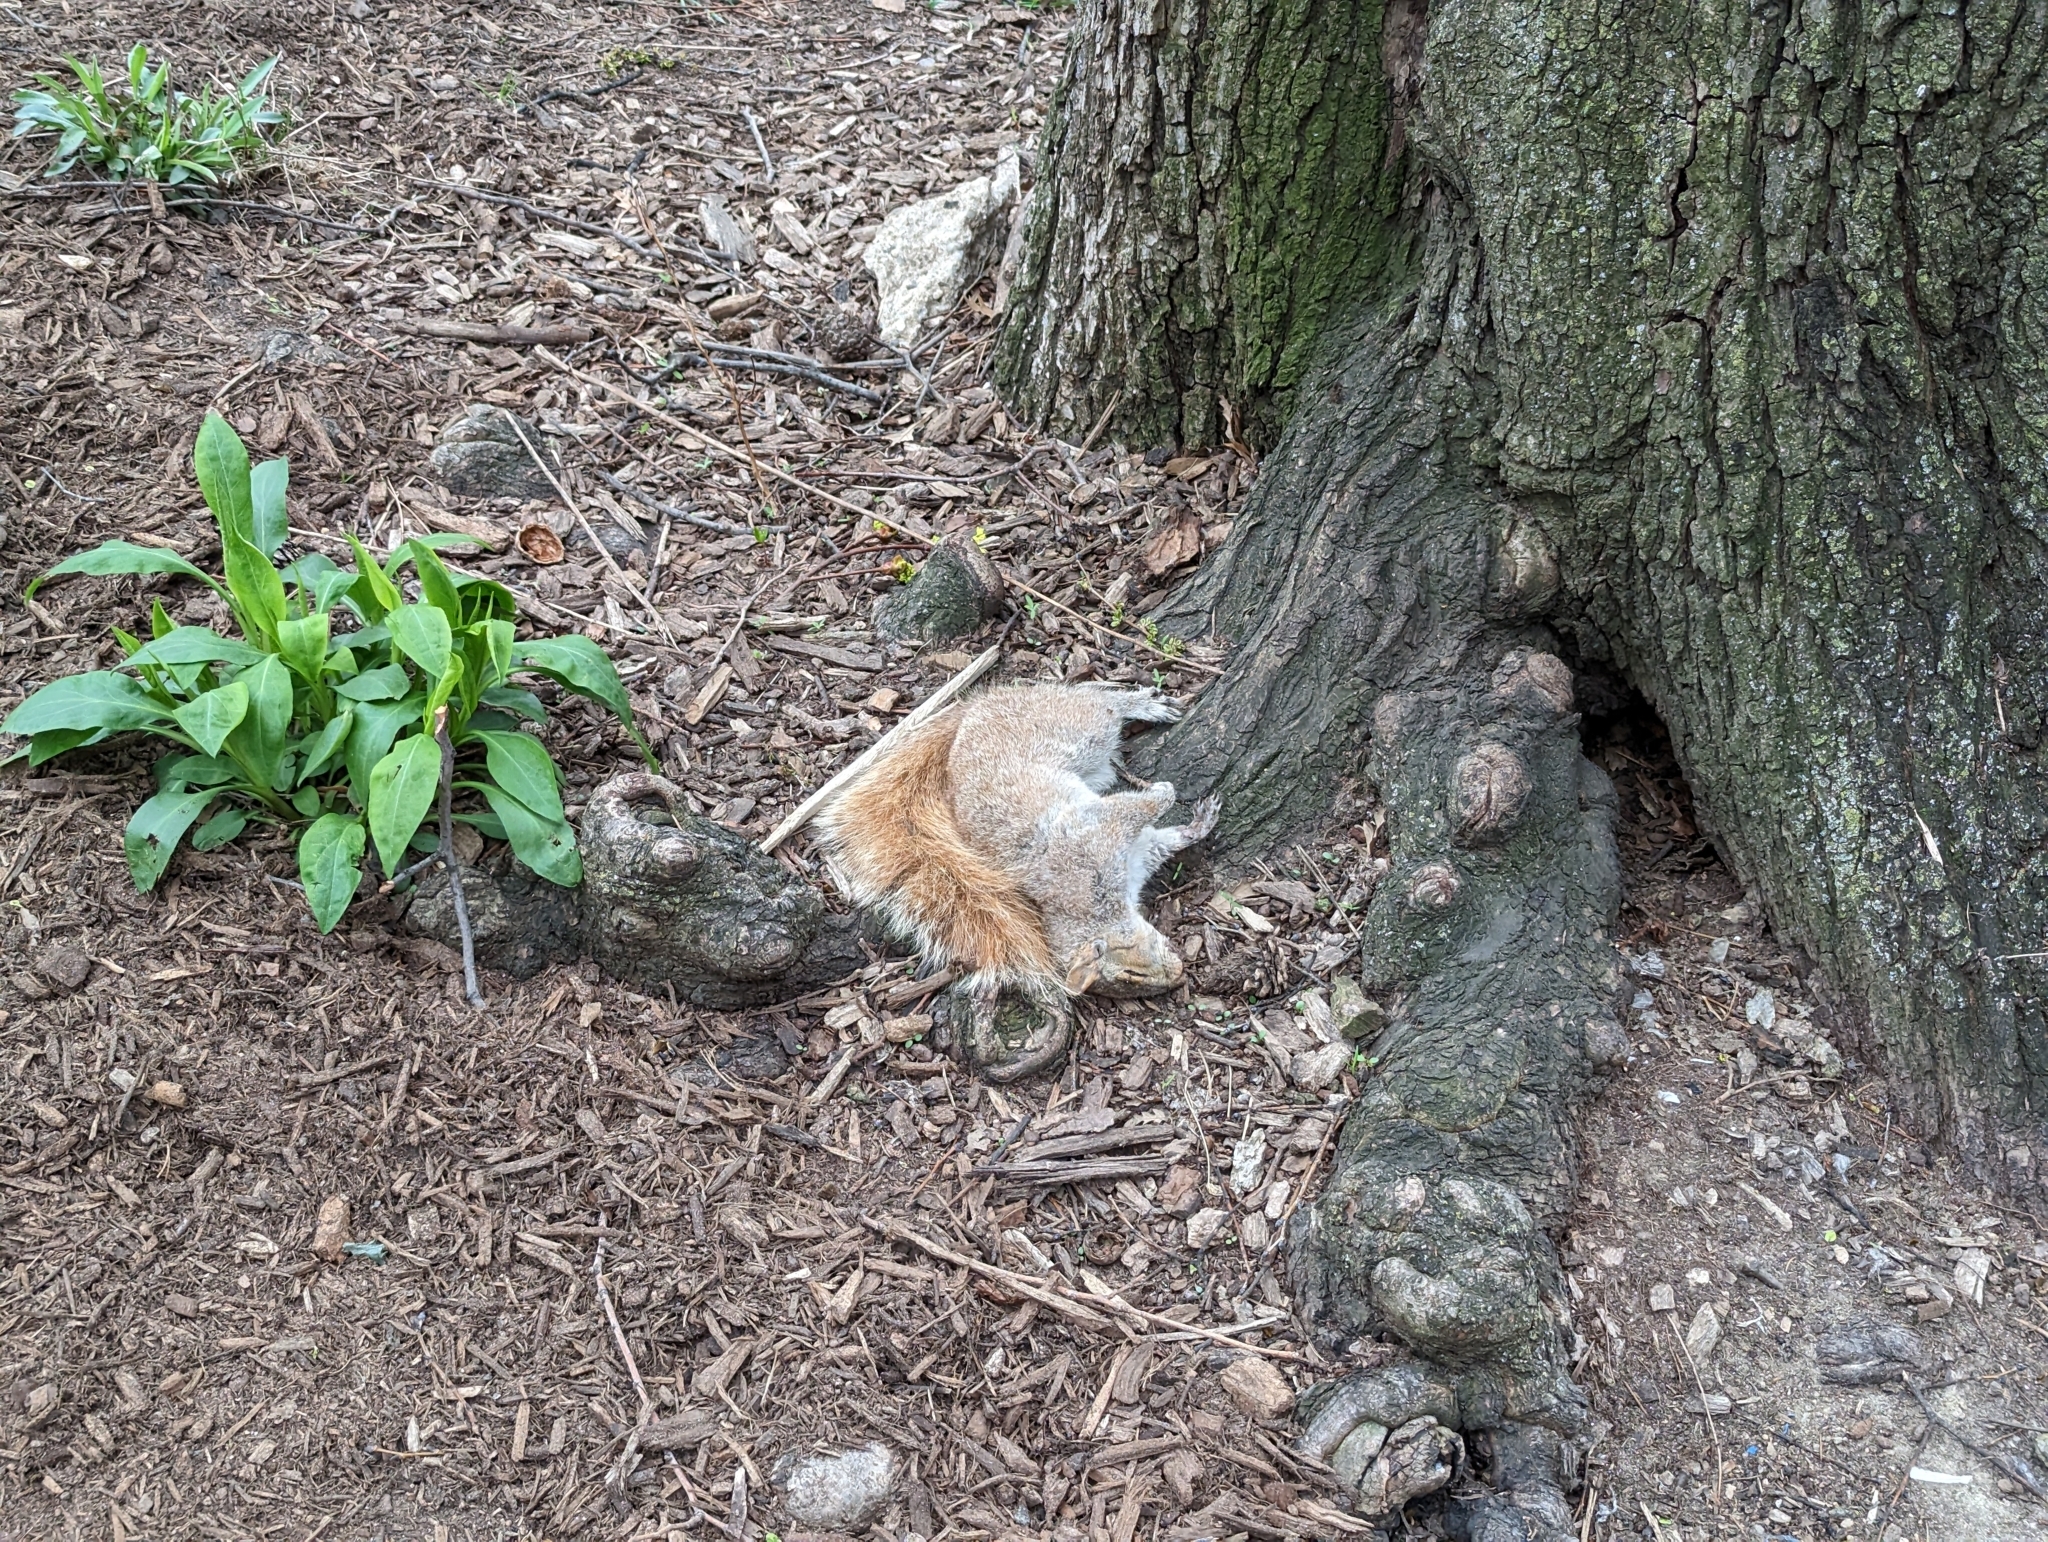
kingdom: Animalia
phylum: Chordata
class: Mammalia
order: Rodentia
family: Sciuridae
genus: Sciurus
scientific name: Sciurus carolinensis
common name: Eastern gray squirrel
